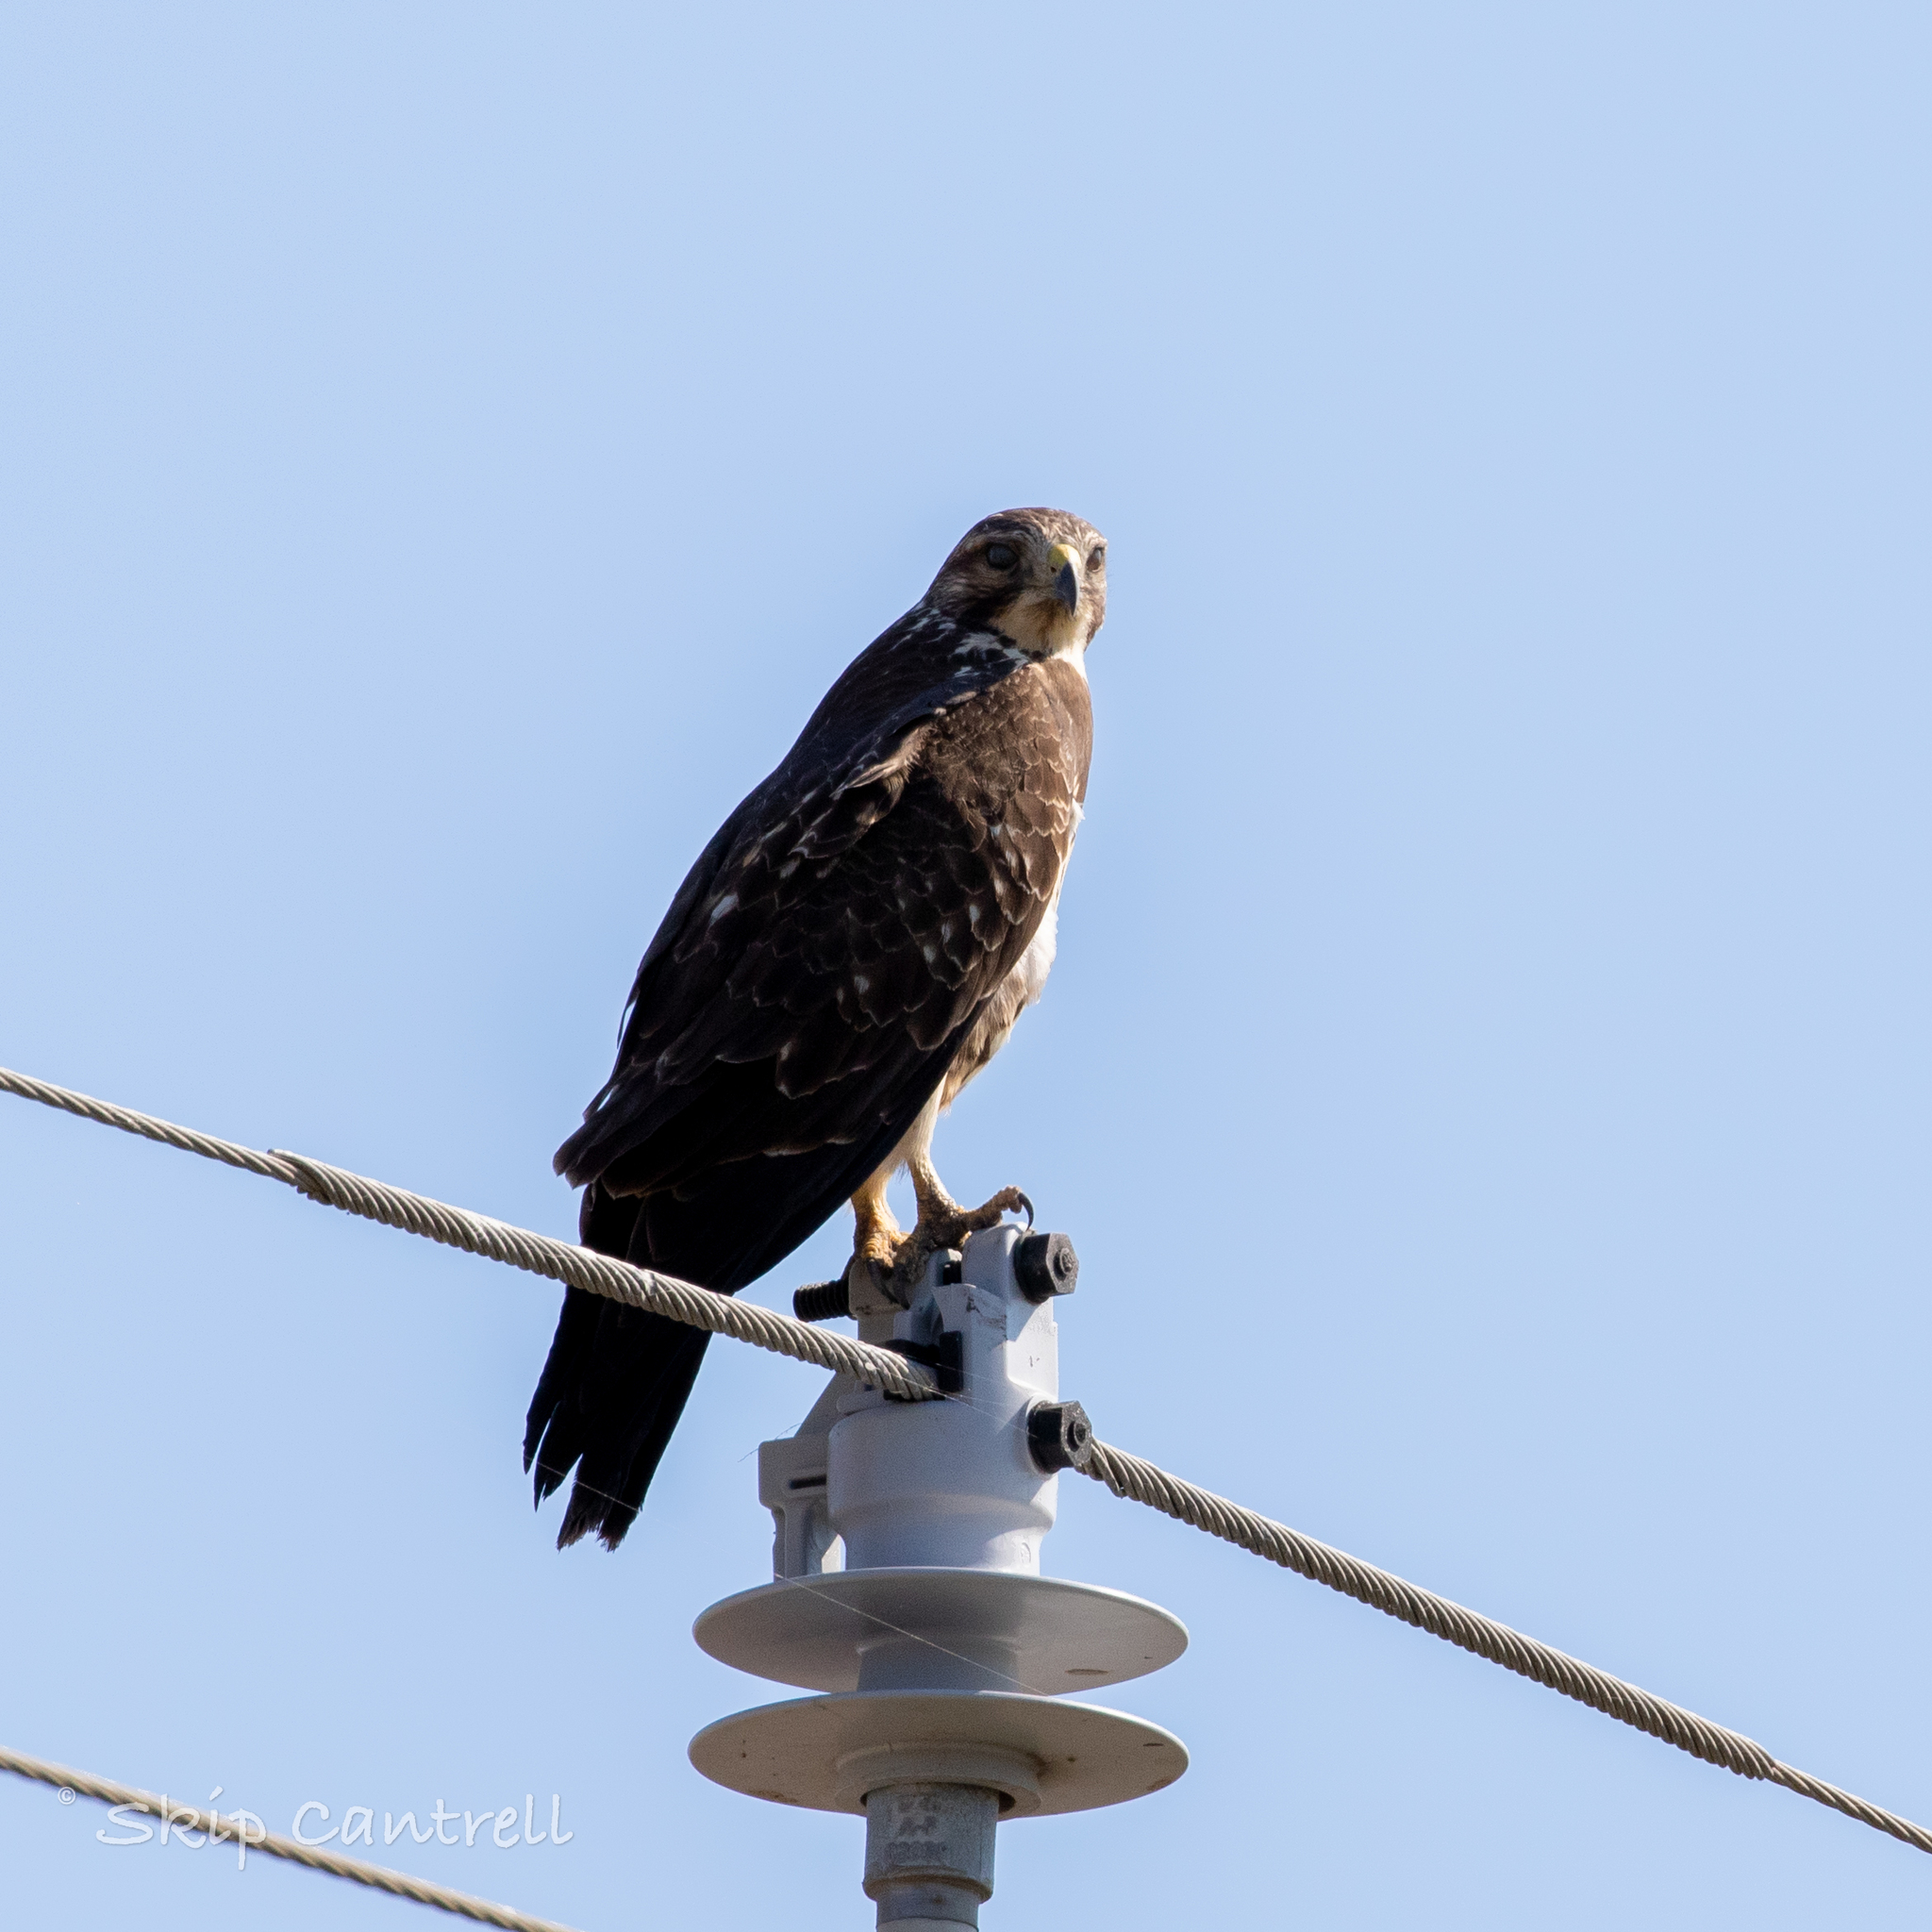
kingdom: Animalia
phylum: Chordata
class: Aves
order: Accipitriformes
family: Accipitridae
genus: Buteo
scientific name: Buteo swainsoni
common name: Swainson's hawk
